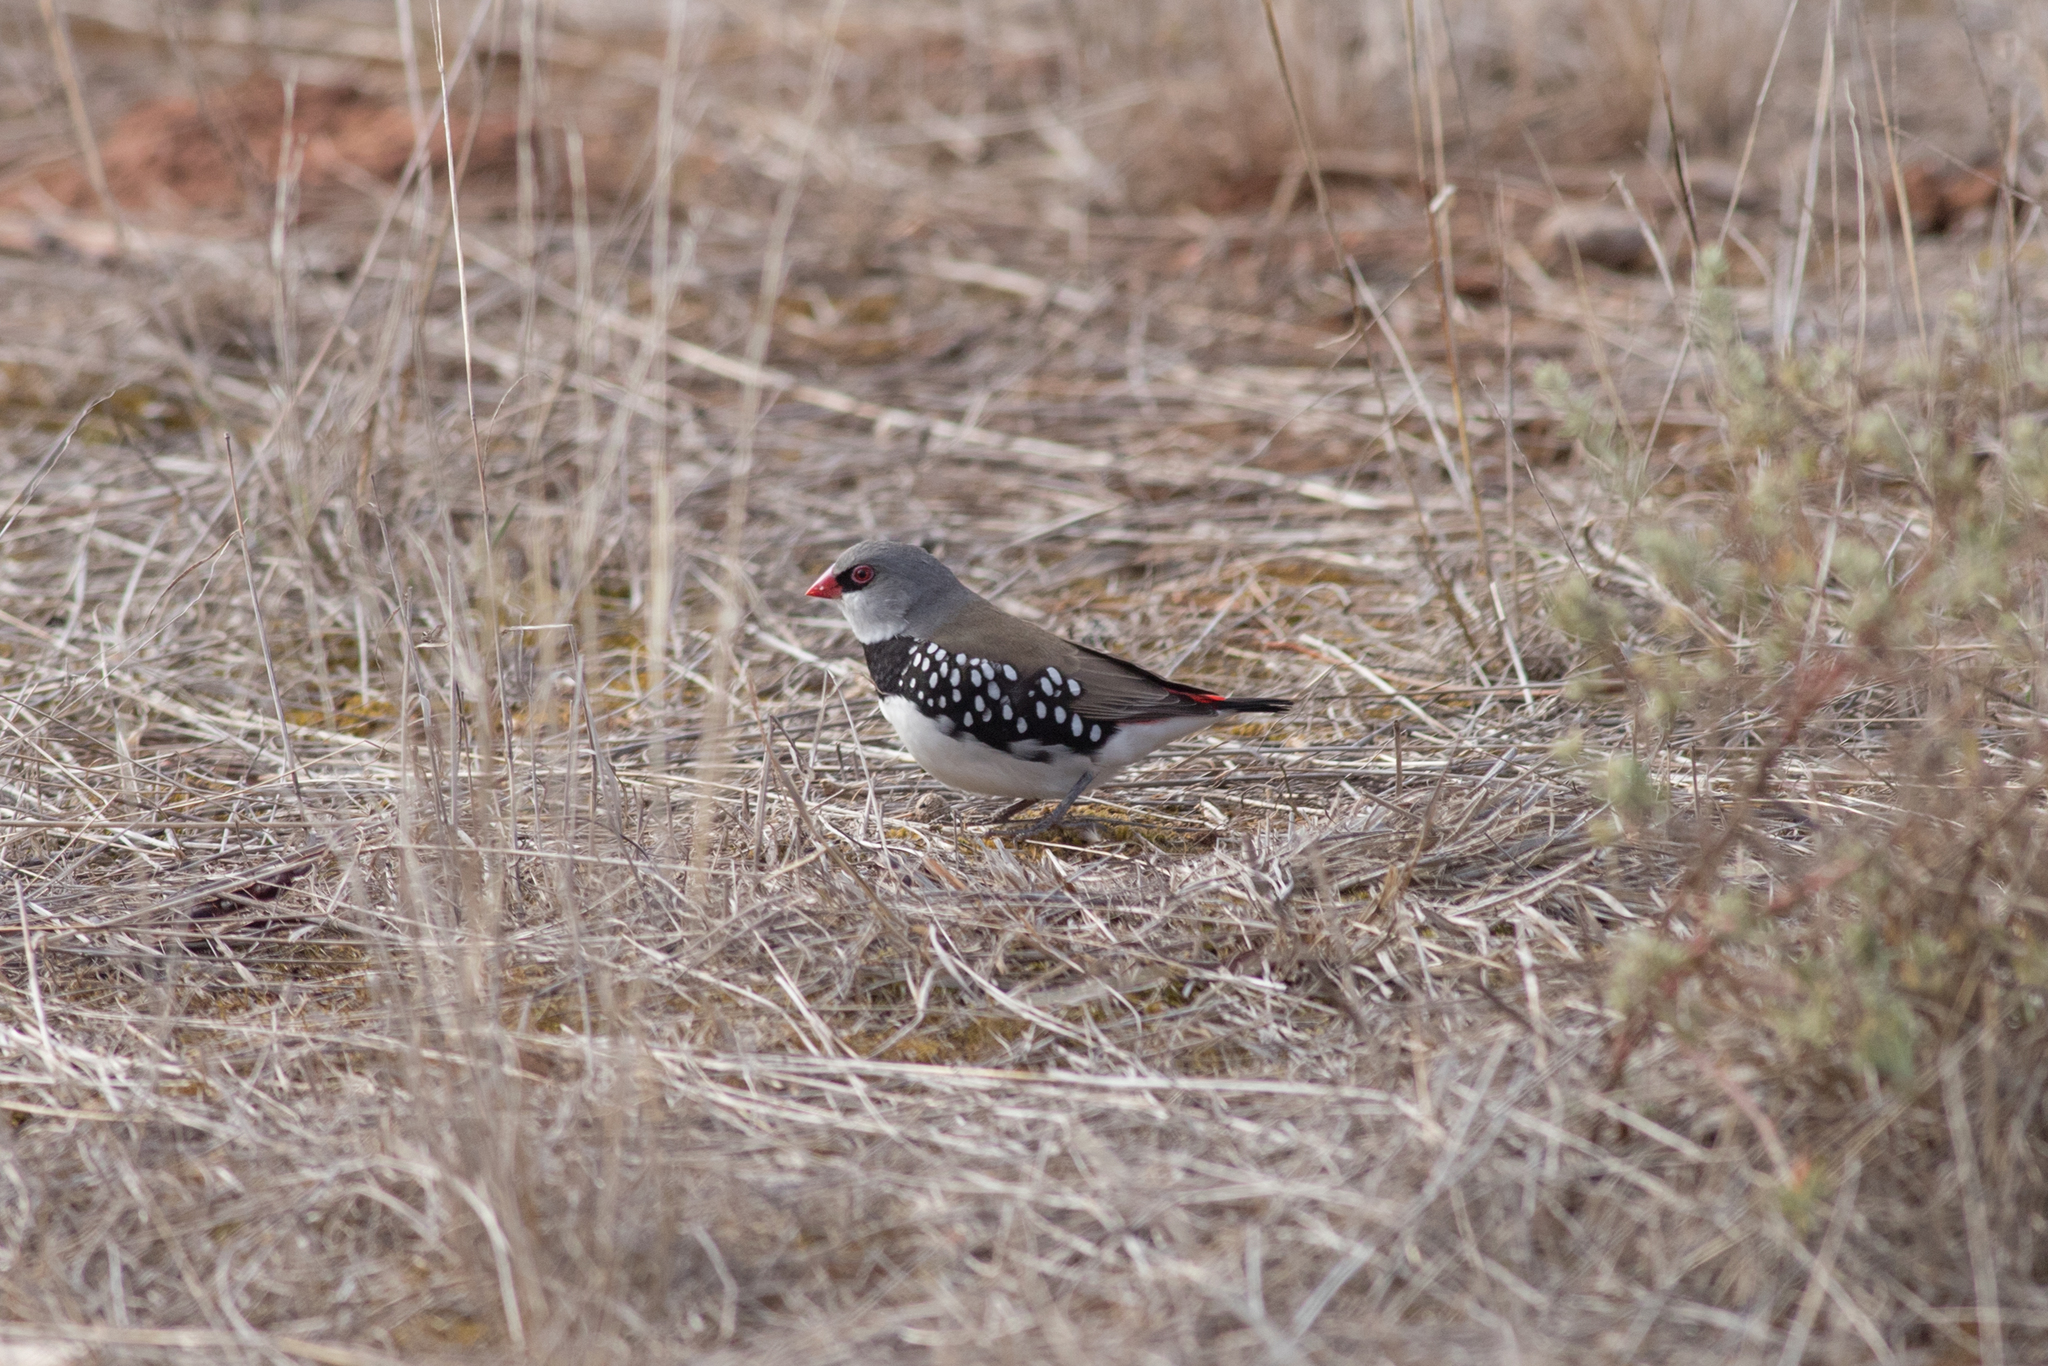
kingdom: Animalia
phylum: Chordata
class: Aves
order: Passeriformes
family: Estrildidae
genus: Stagonopleura
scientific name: Stagonopleura guttata
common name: Diamond firetail
